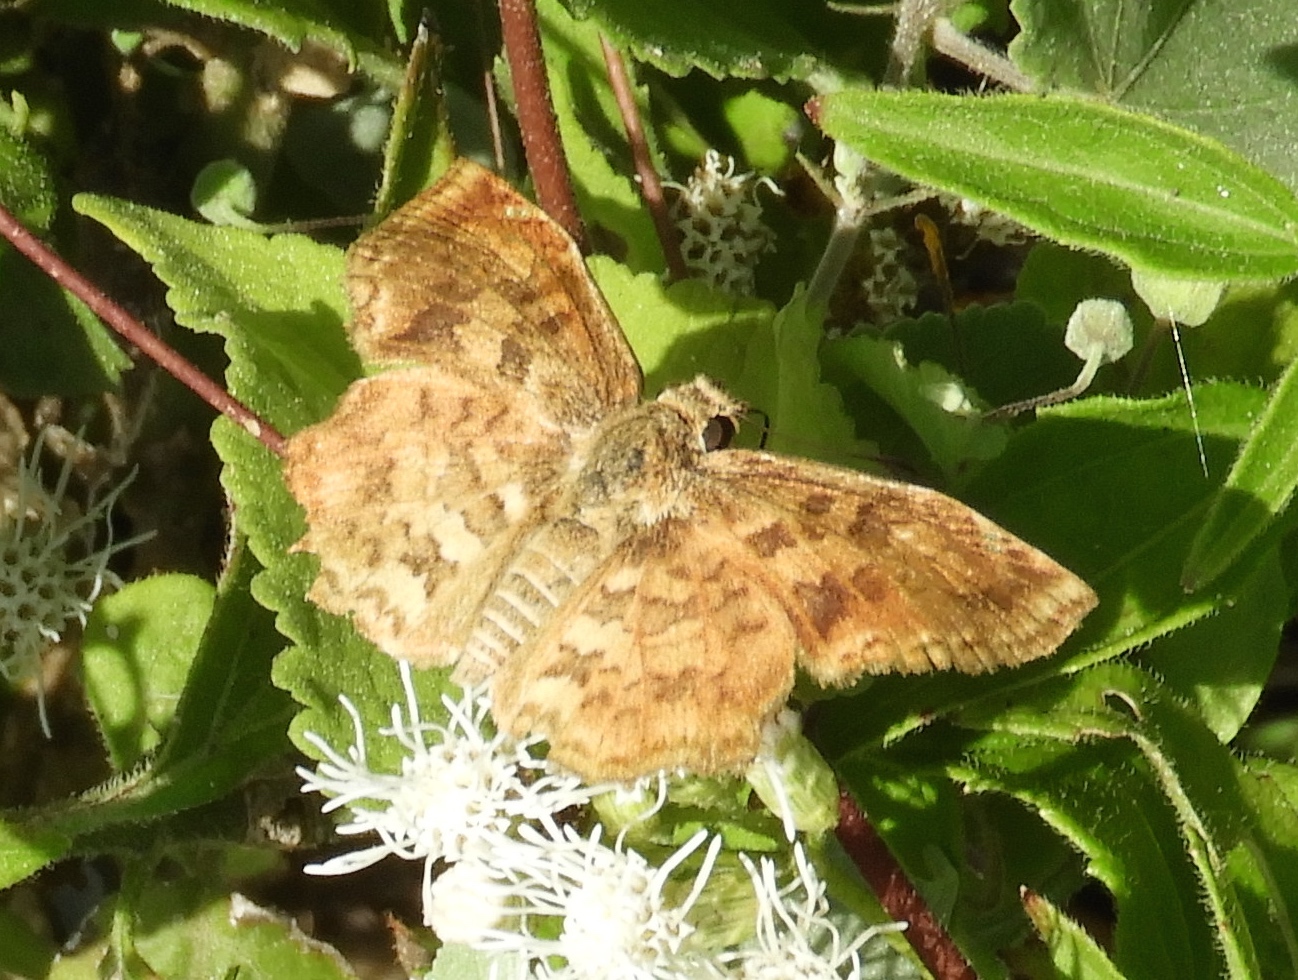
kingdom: Animalia
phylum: Arthropoda
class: Insecta
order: Lepidoptera
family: Hesperiidae
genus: Antigonus
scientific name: Antigonus erosus
